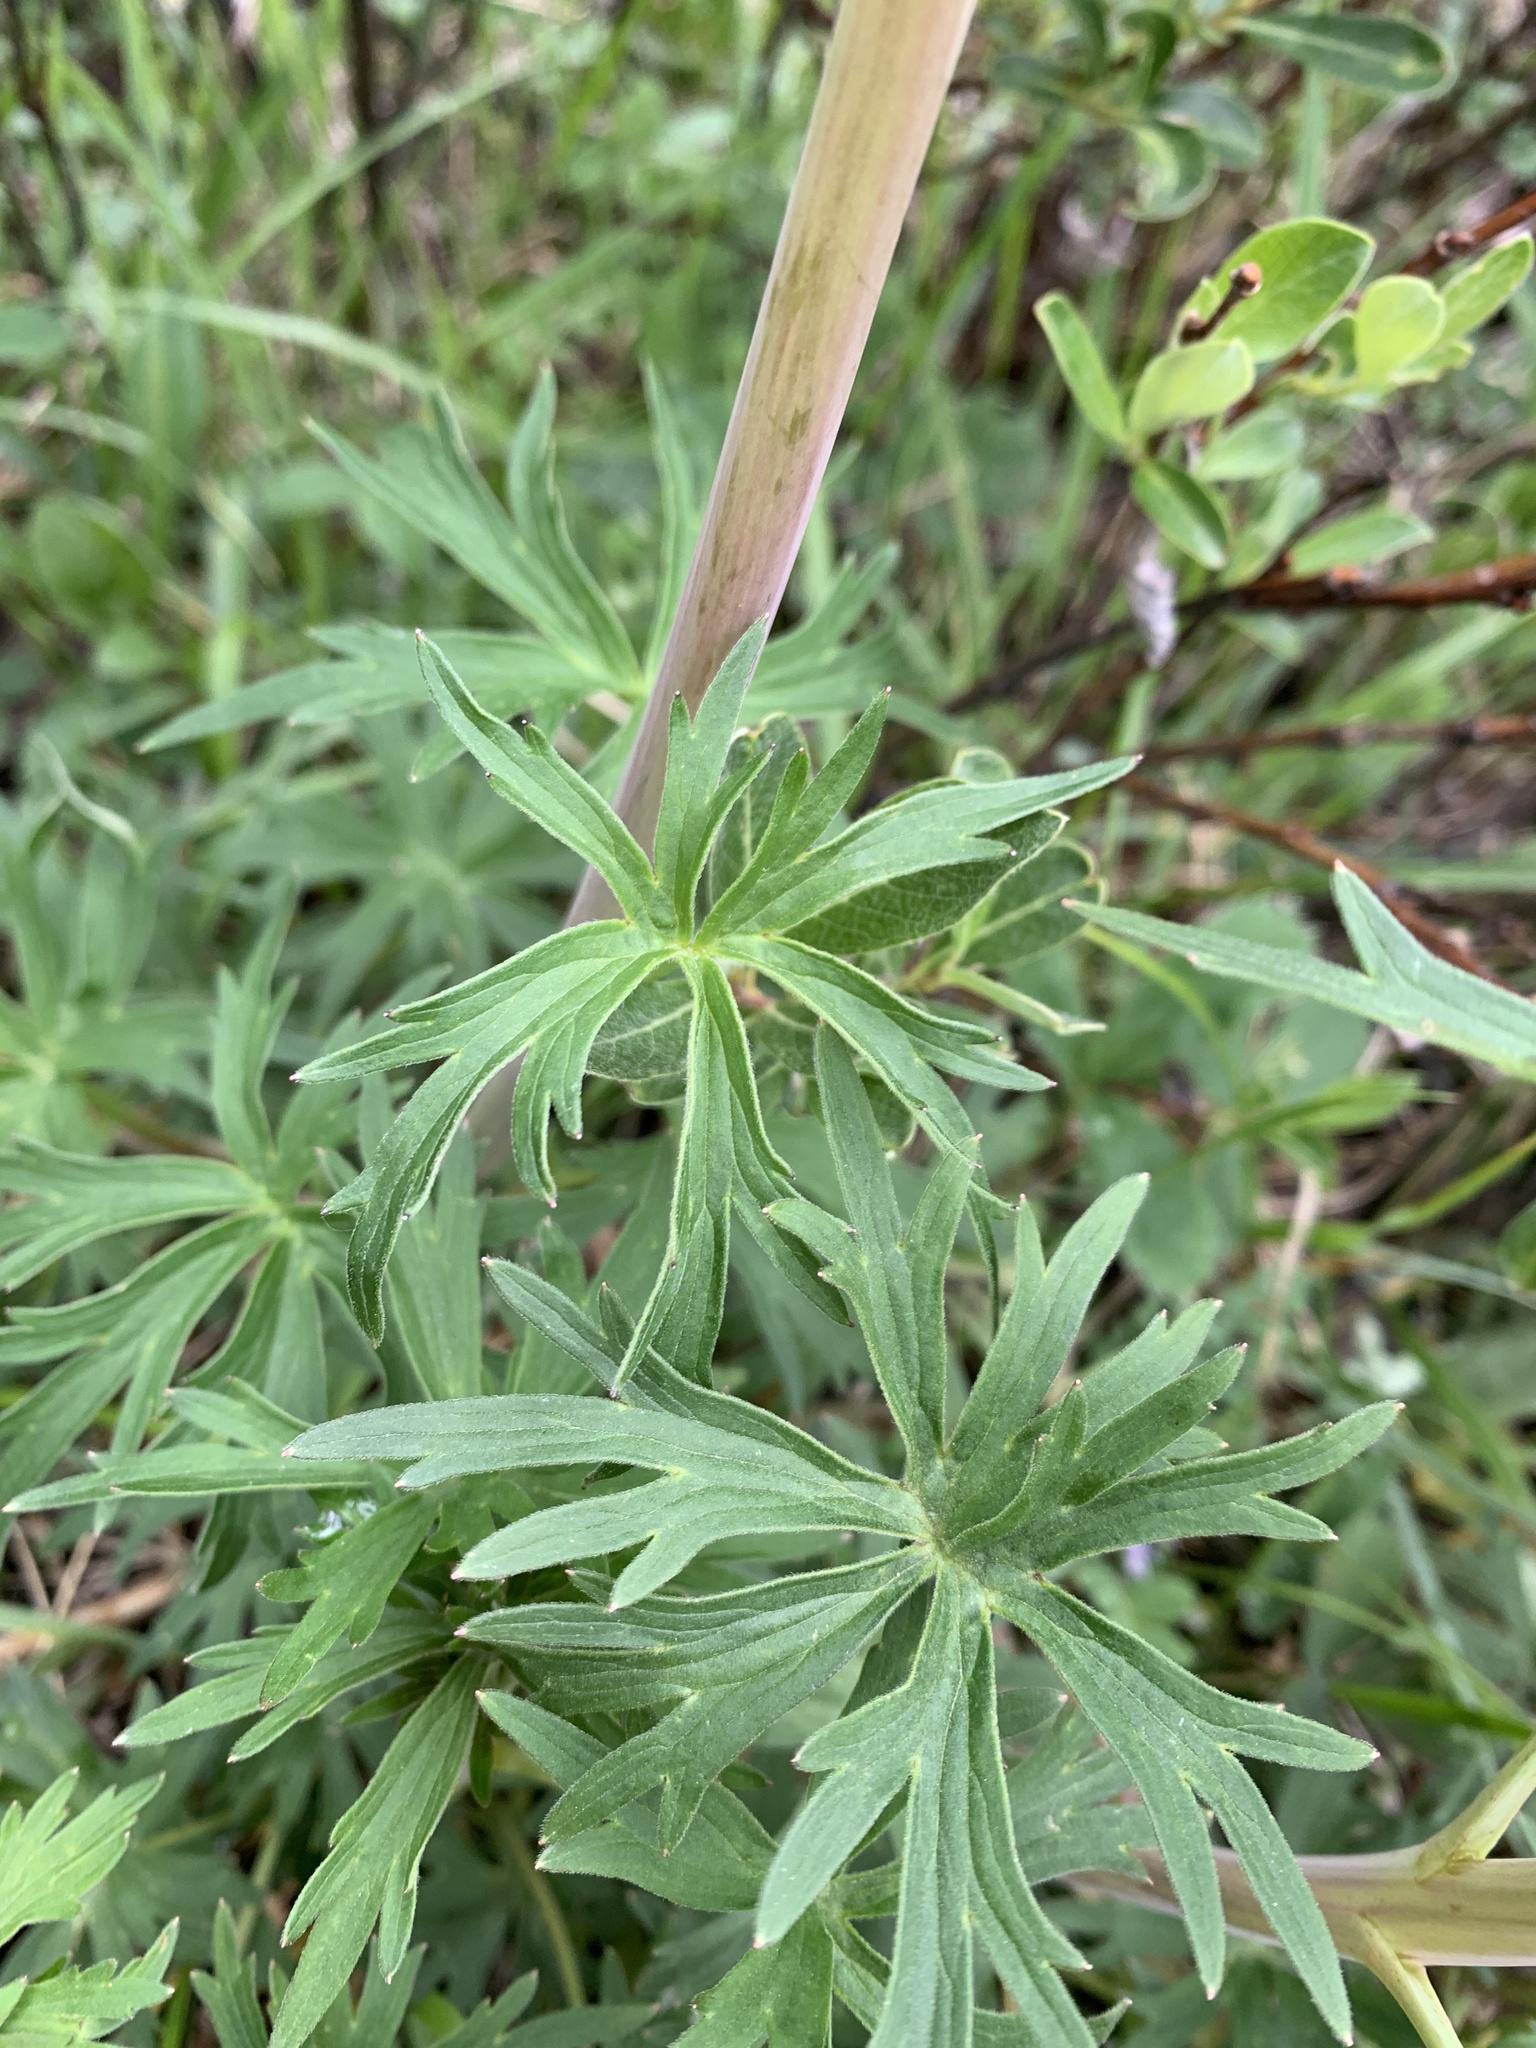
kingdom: Plantae
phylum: Tracheophyta
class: Magnoliopsida
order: Ranunculales
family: Ranunculaceae
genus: Delphinium
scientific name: Delphinium glaucum
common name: Brown's larkspur
